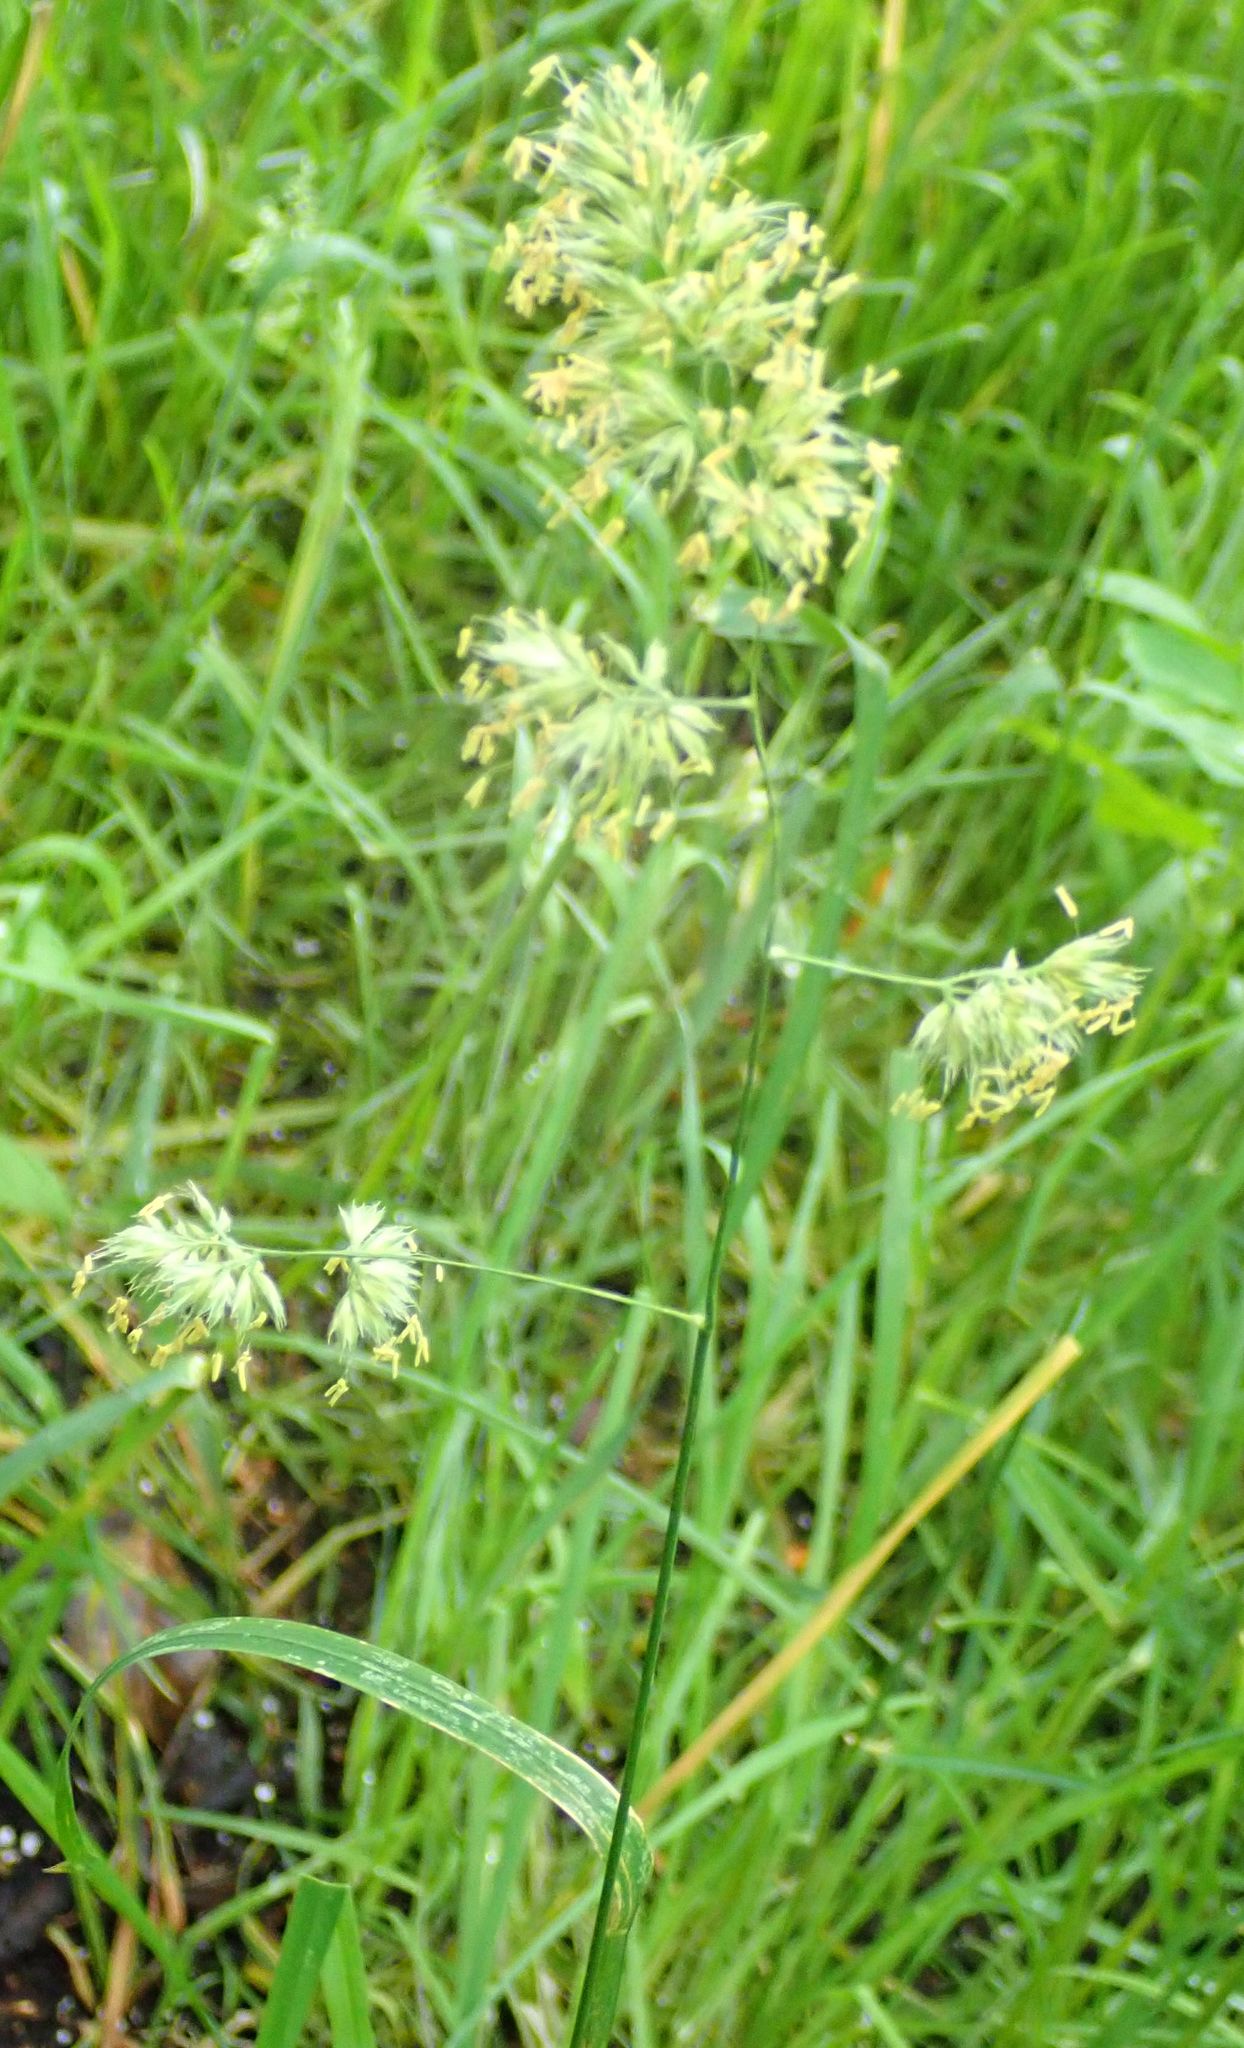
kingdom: Plantae
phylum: Tracheophyta
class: Liliopsida
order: Poales
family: Poaceae
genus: Dactylis
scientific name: Dactylis glomerata
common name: Orchardgrass
